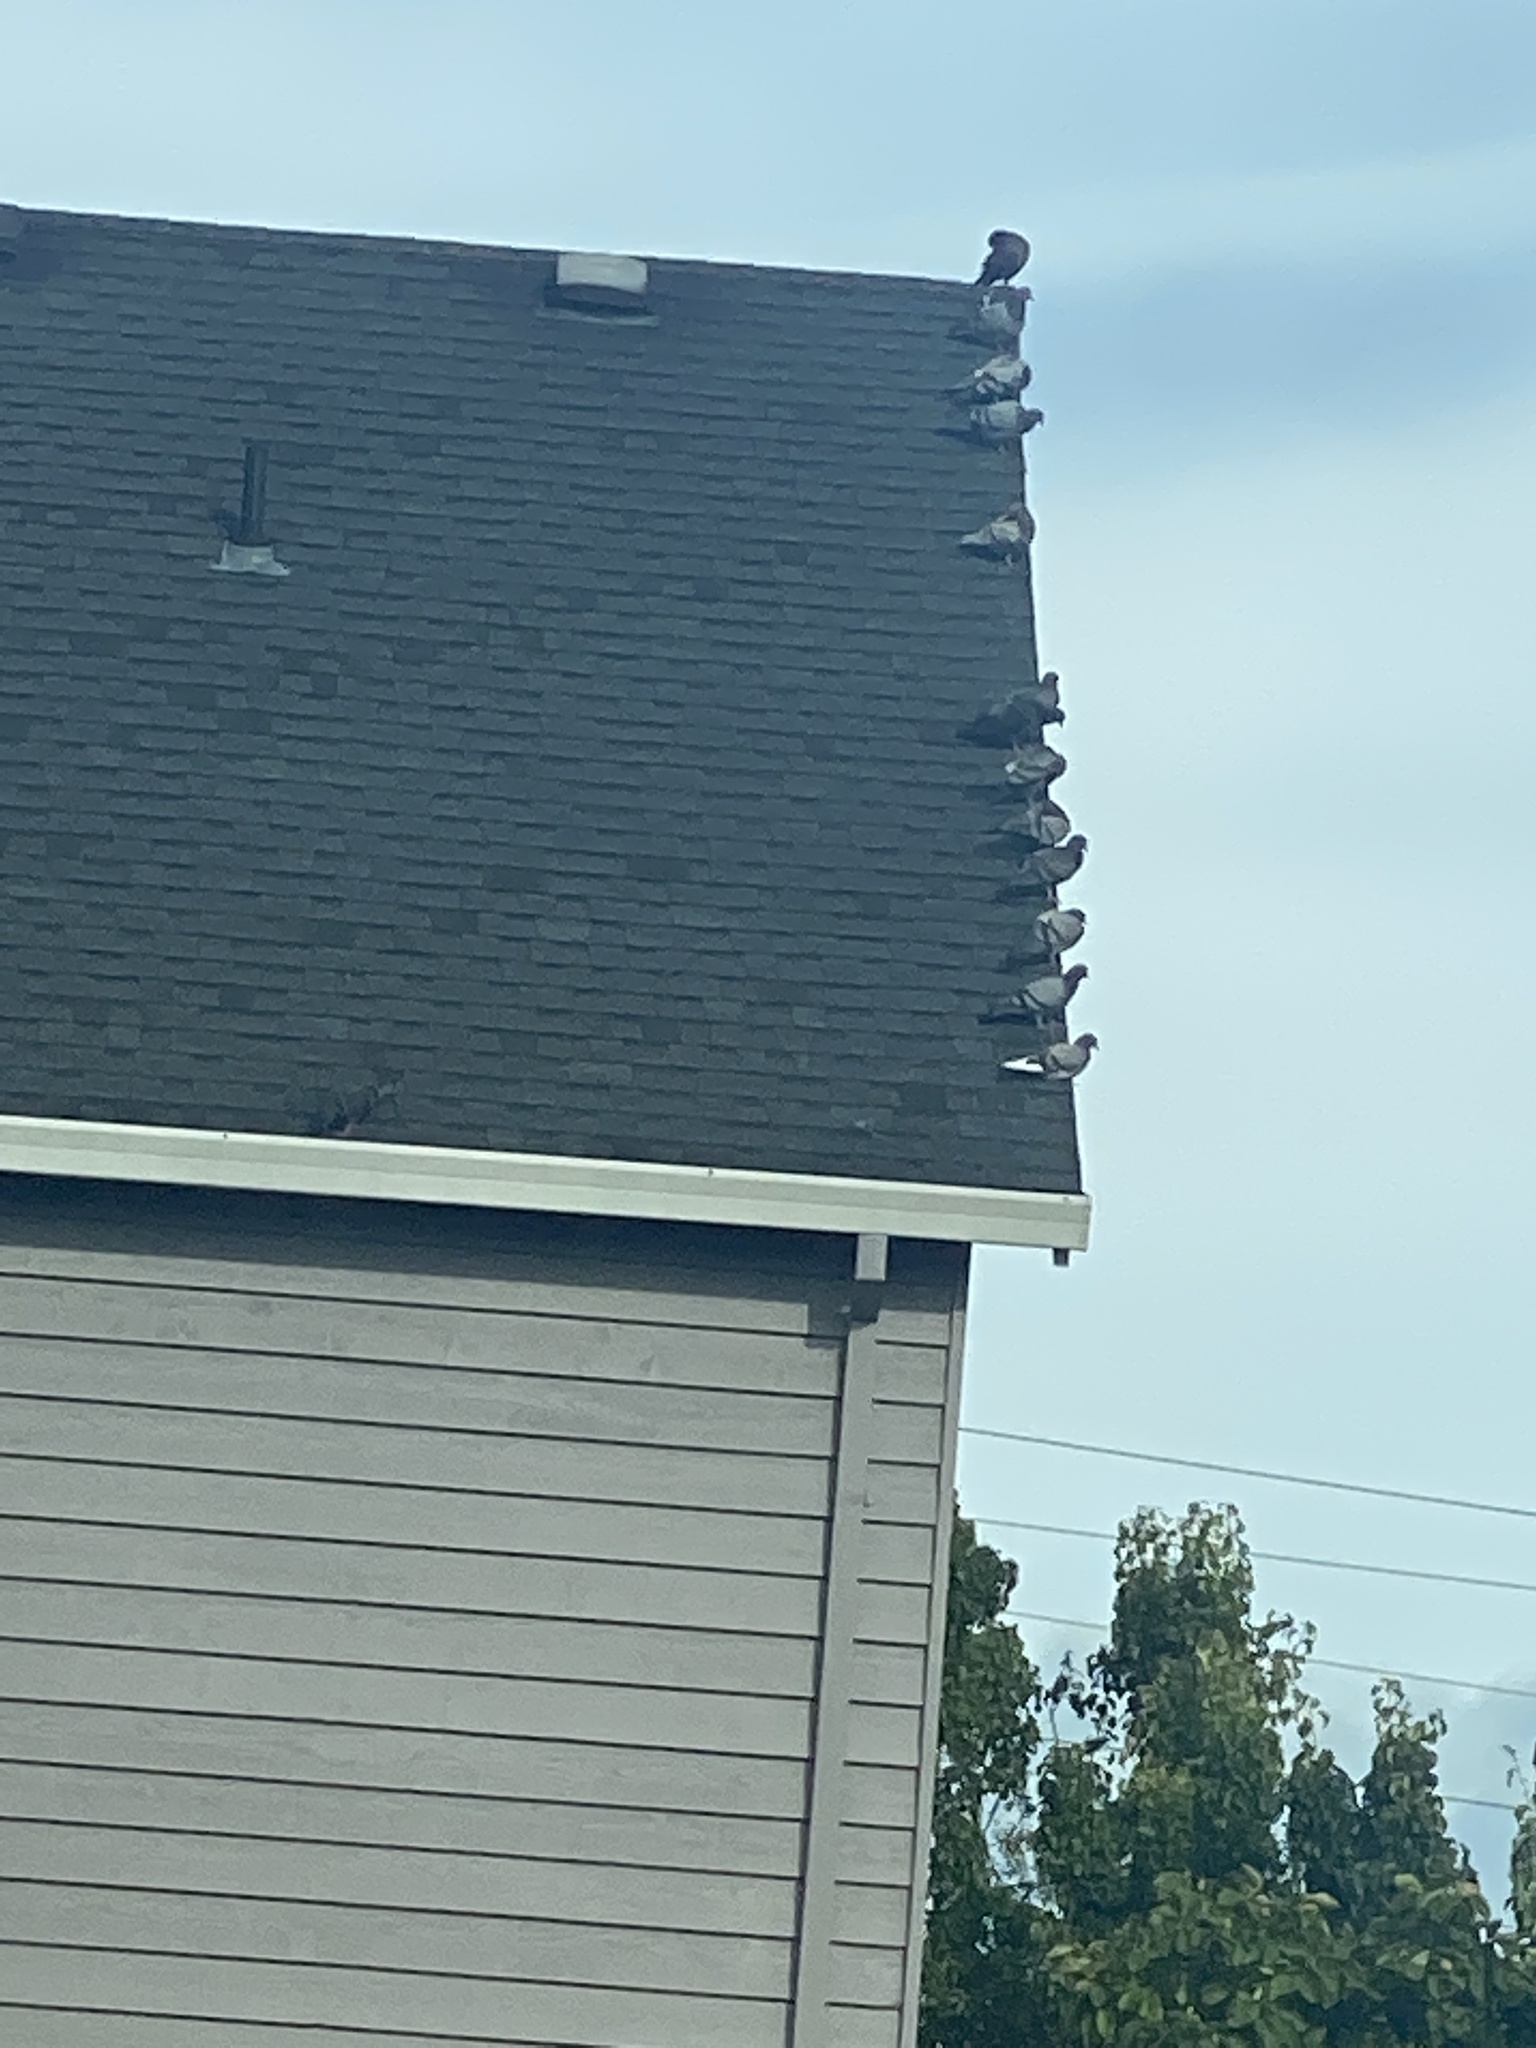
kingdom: Animalia
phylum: Chordata
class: Aves
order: Columbiformes
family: Columbidae
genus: Columba
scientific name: Columba livia
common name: Rock pigeon
